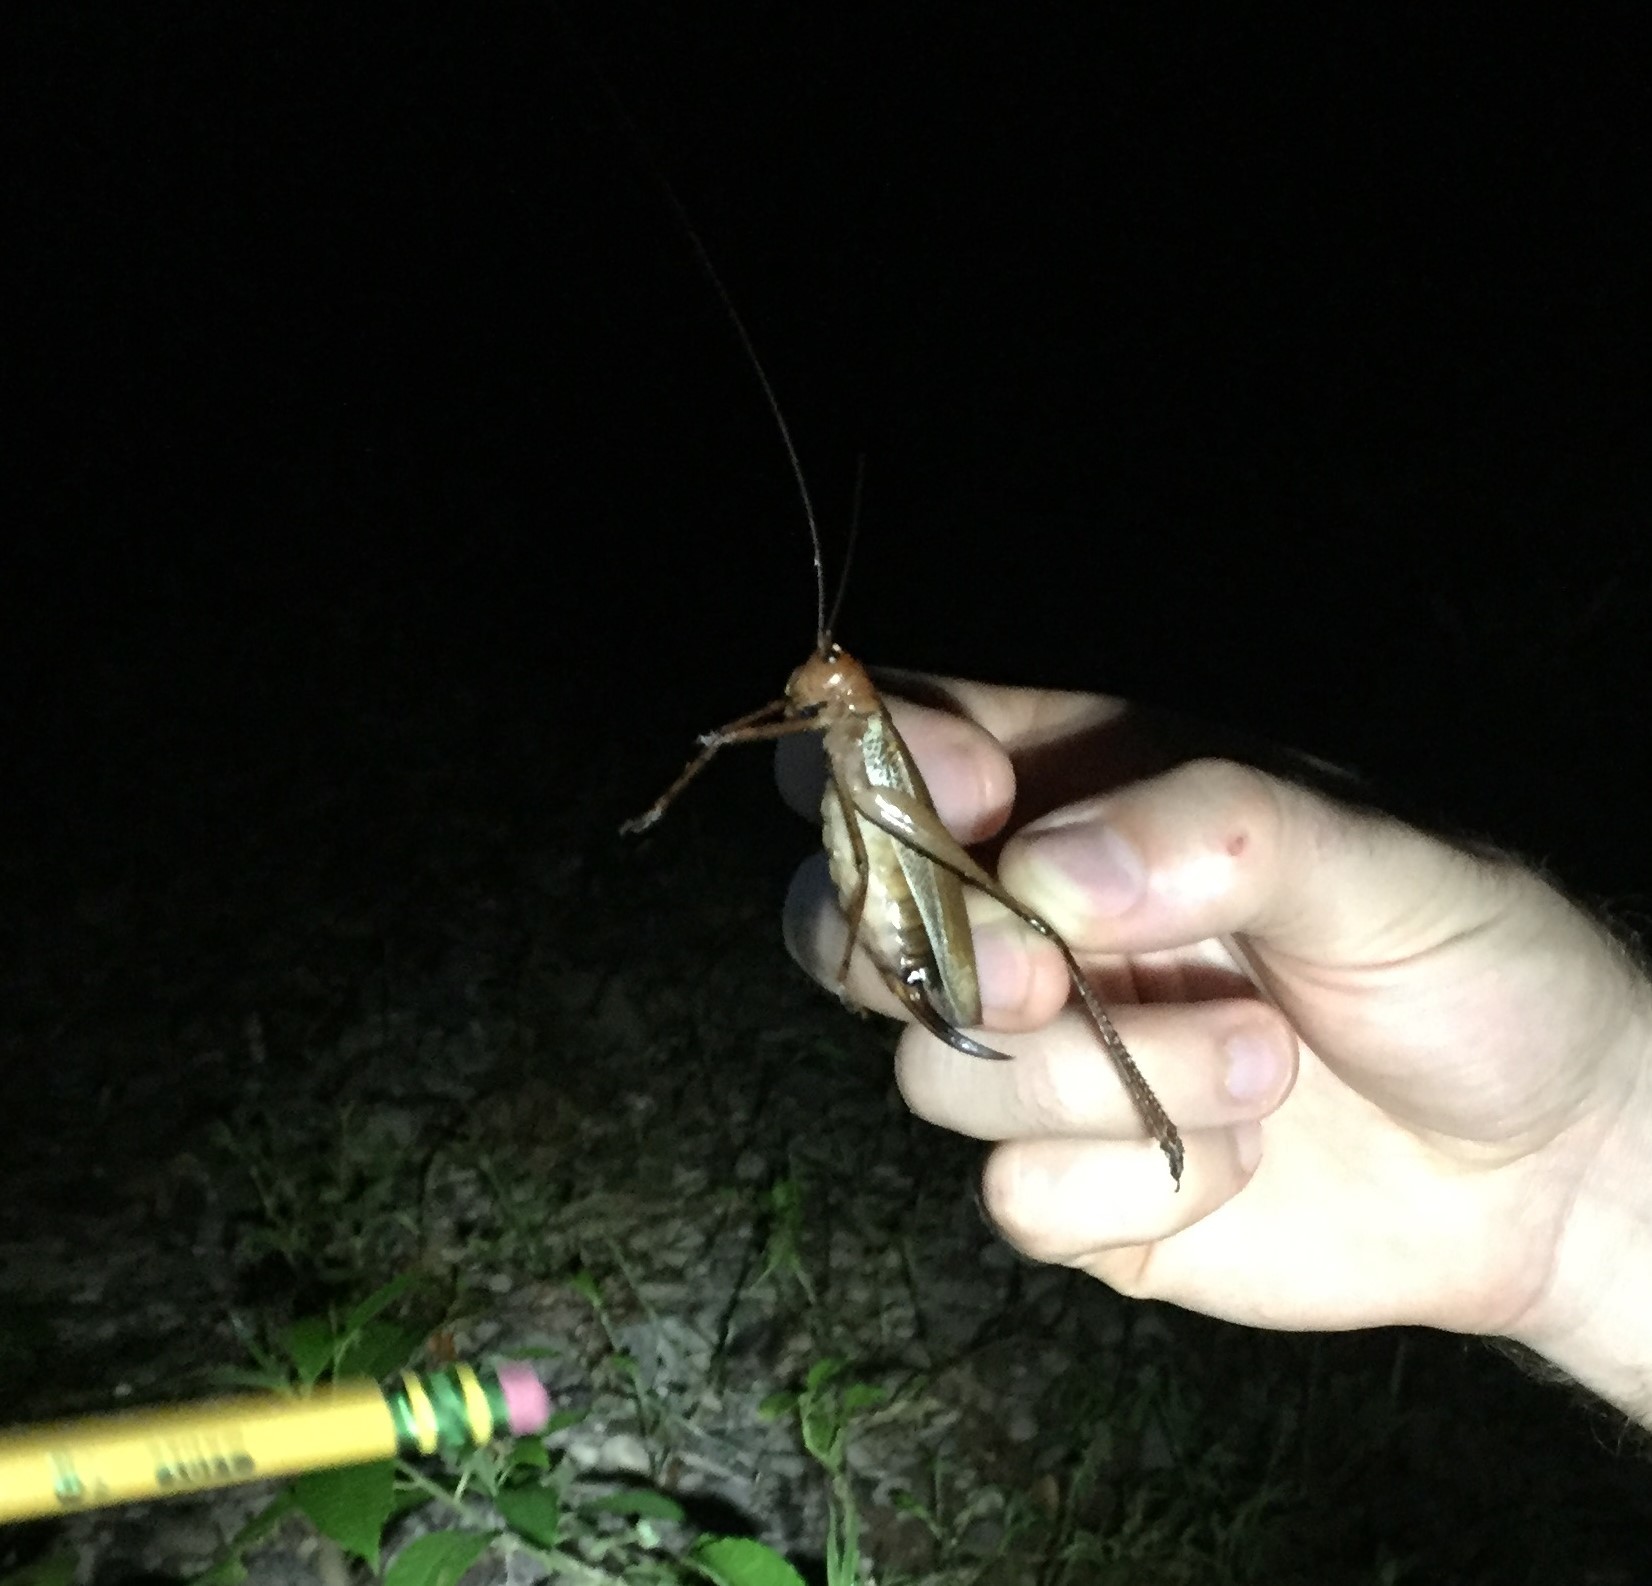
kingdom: Animalia
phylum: Arthropoda
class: Insecta
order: Orthoptera
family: Tettigoniidae
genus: Ischnomela
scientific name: Ischnomela pulchripennis
